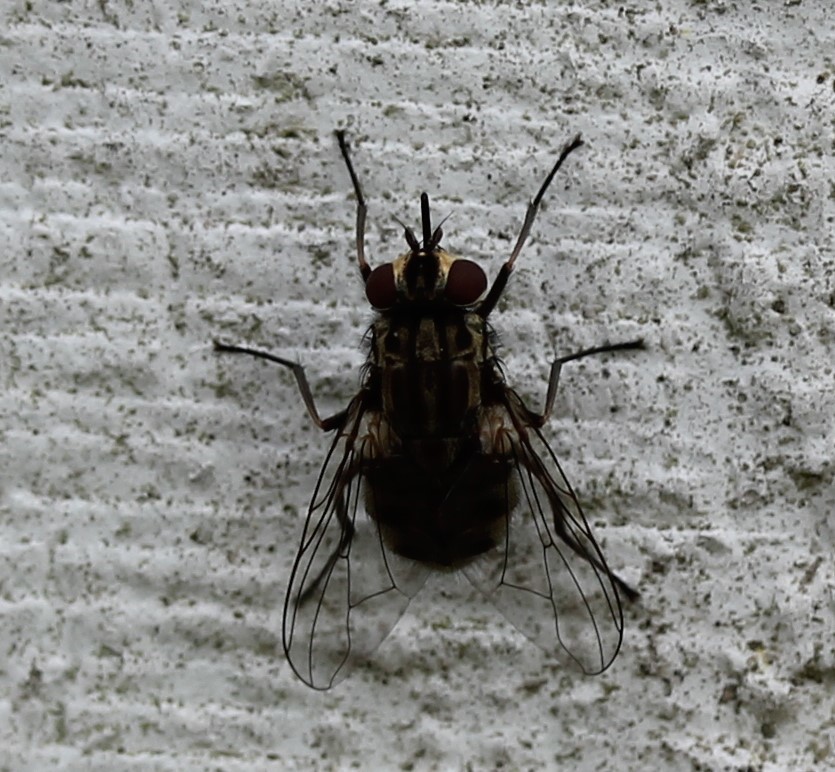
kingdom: Animalia
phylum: Arthropoda
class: Insecta
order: Diptera
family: Muscidae
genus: Stomoxys
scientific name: Stomoxys calcitrans
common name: Stable fly
